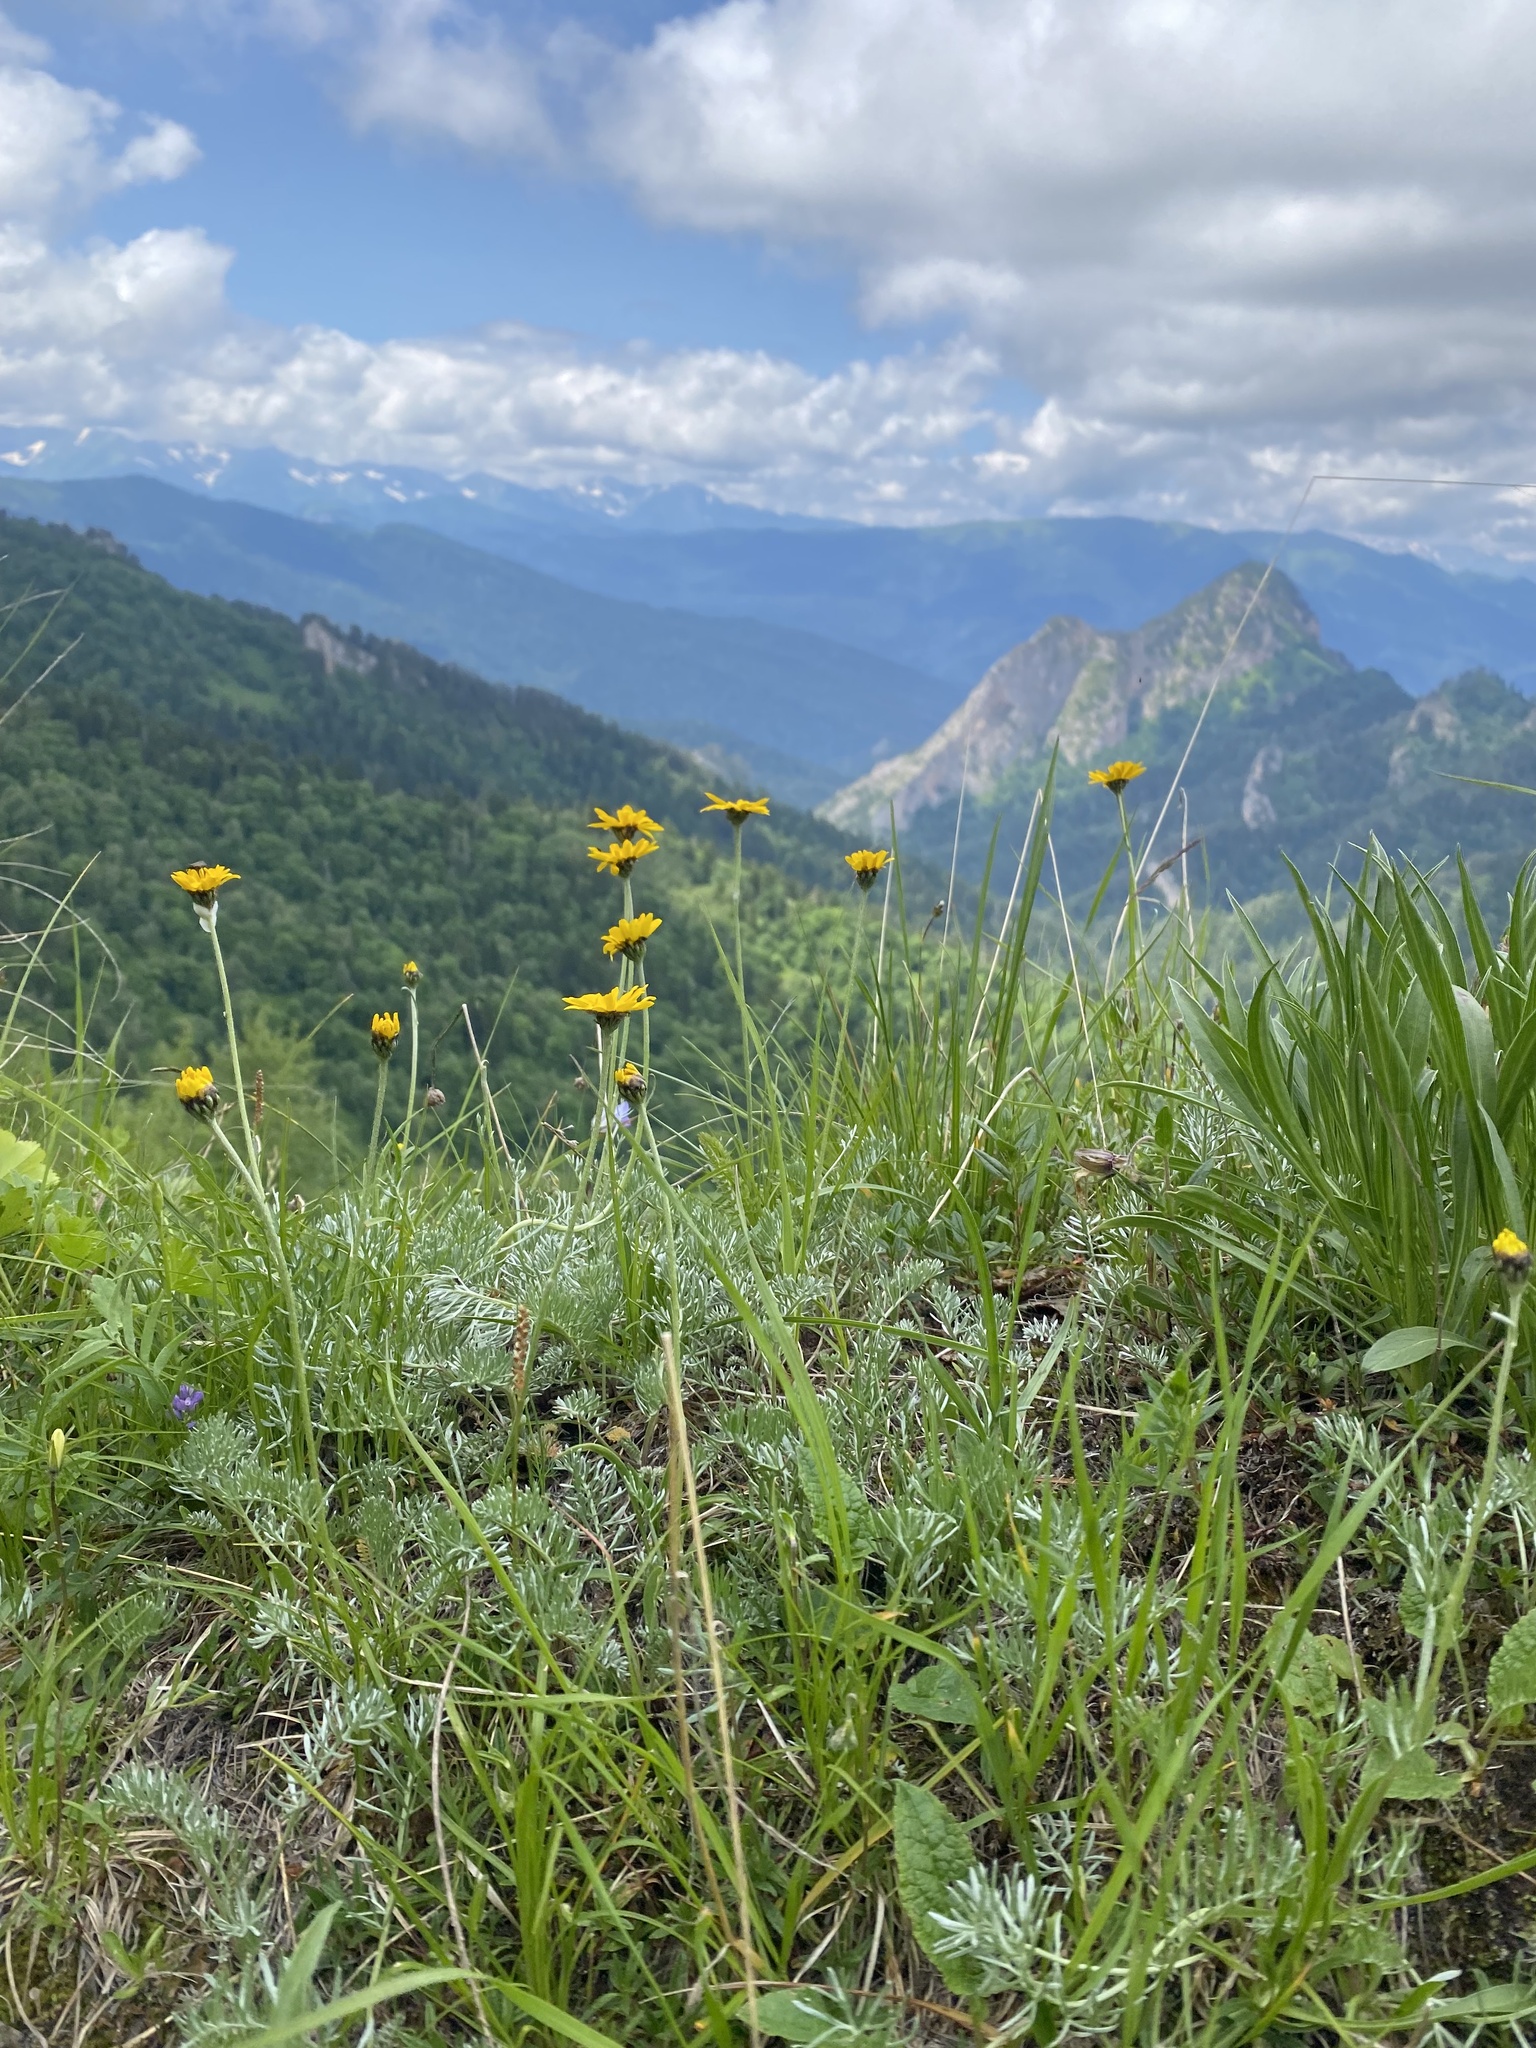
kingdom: Plantae
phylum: Tracheophyta
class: Magnoliopsida
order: Asterales
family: Asteraceae
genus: Archanthemis
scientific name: Archanthemis marschalliana
